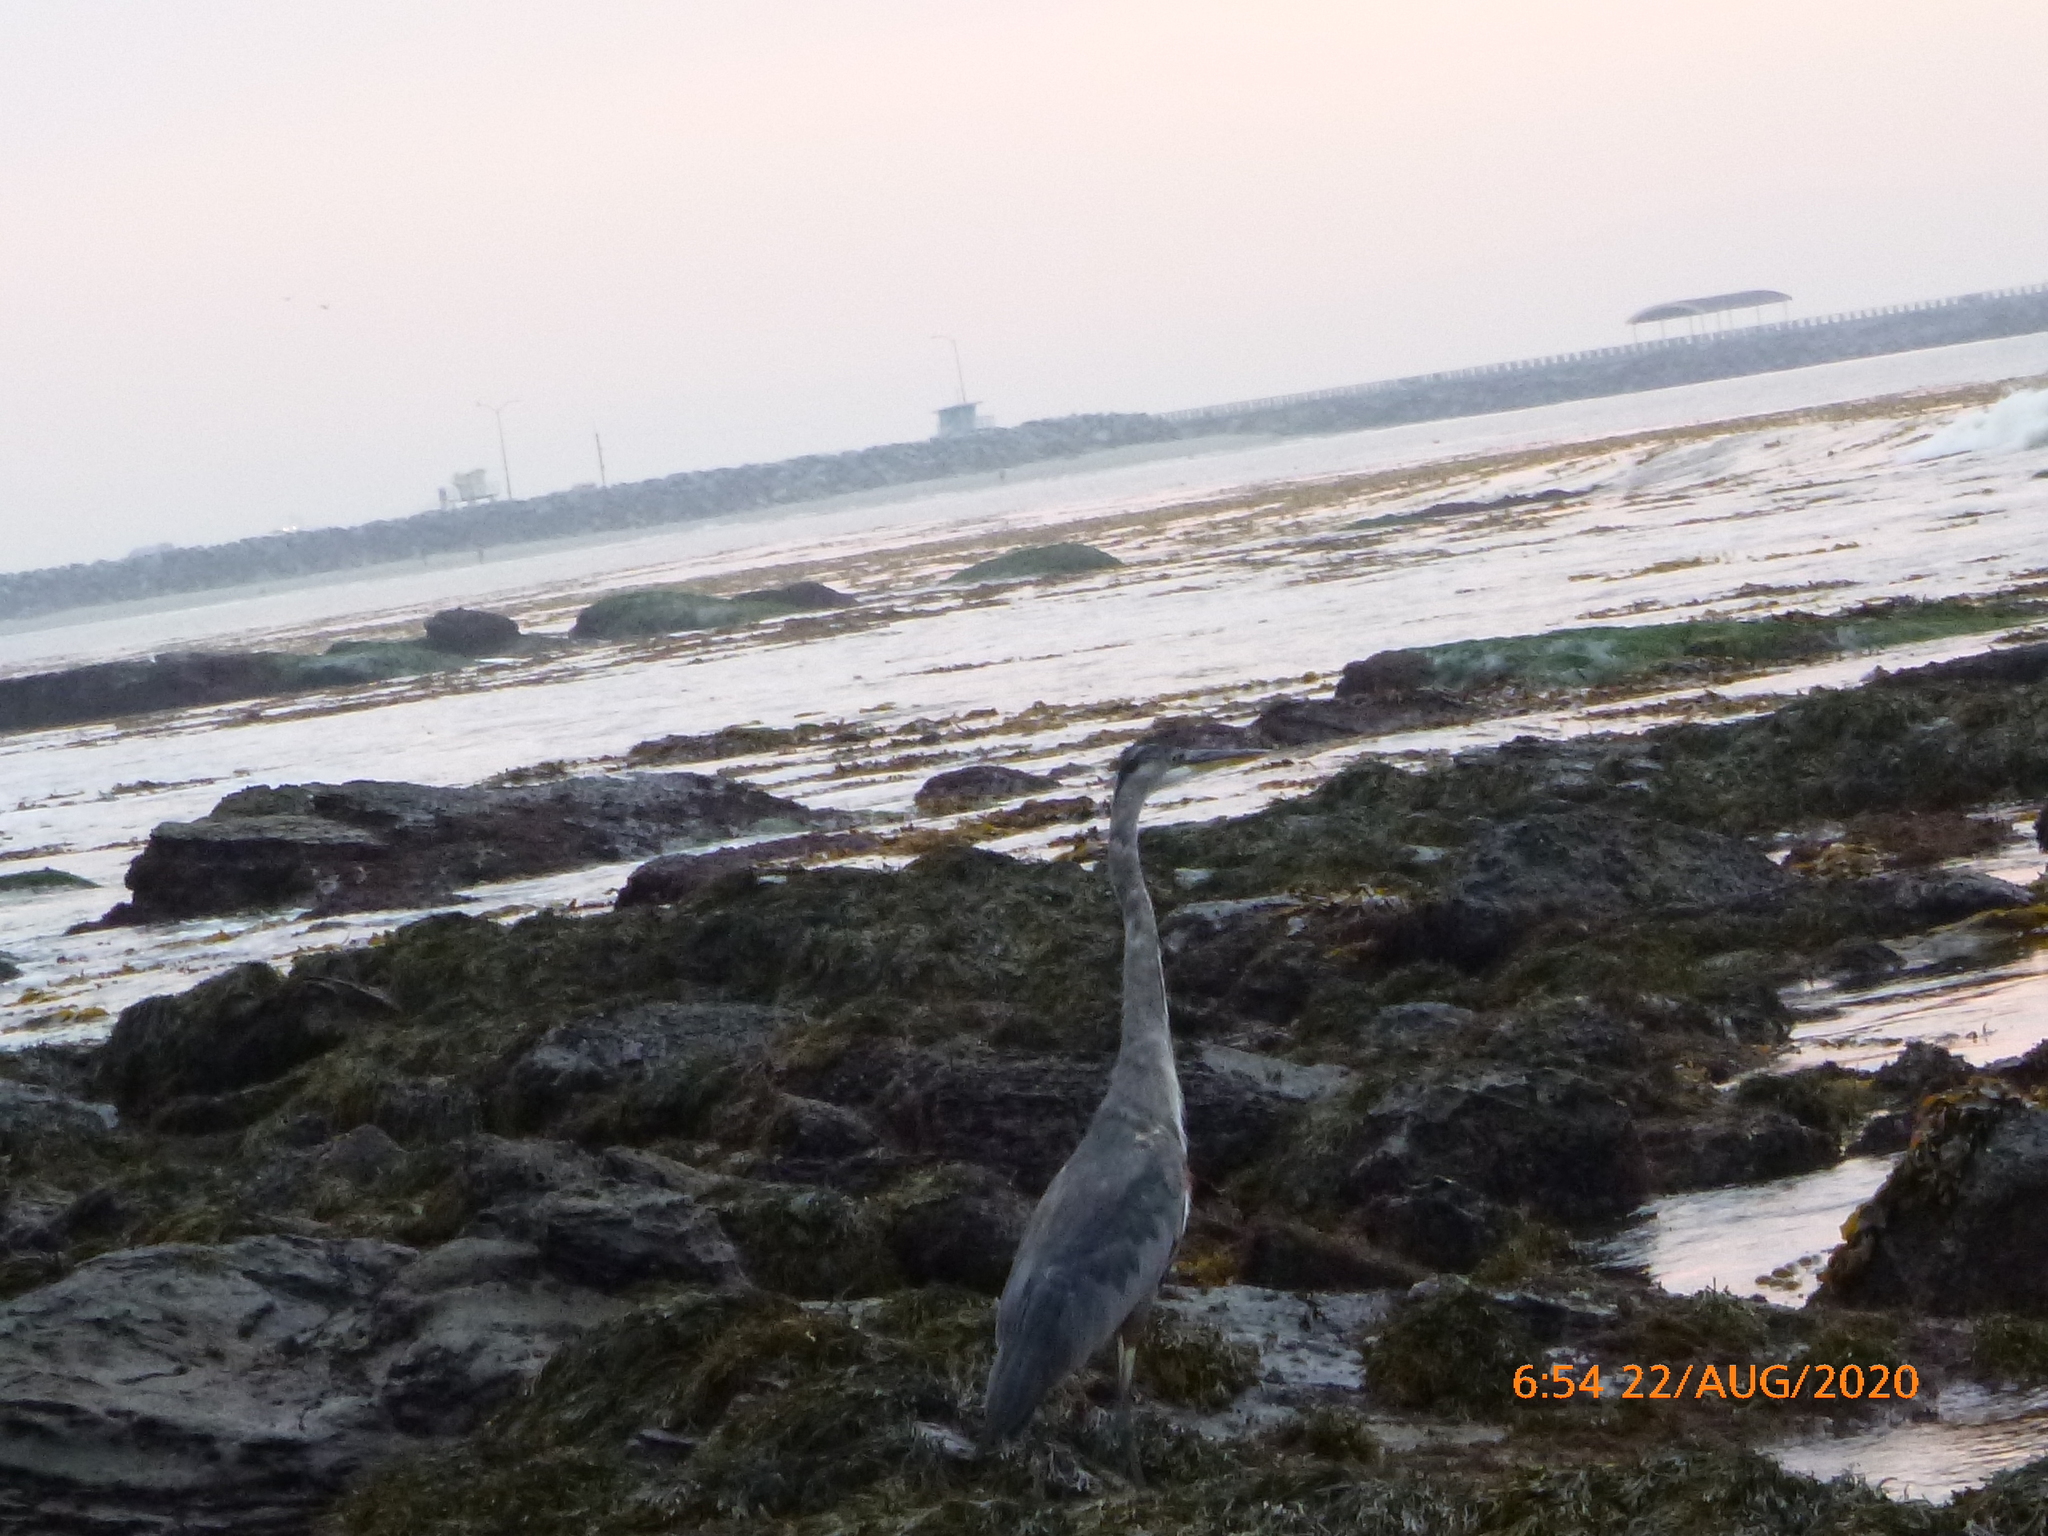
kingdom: Animalia
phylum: Chordata
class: Aves
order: Pelecaniformes
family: Ardeidae
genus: Ardea
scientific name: Ardea herodias
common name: Great blue heron
